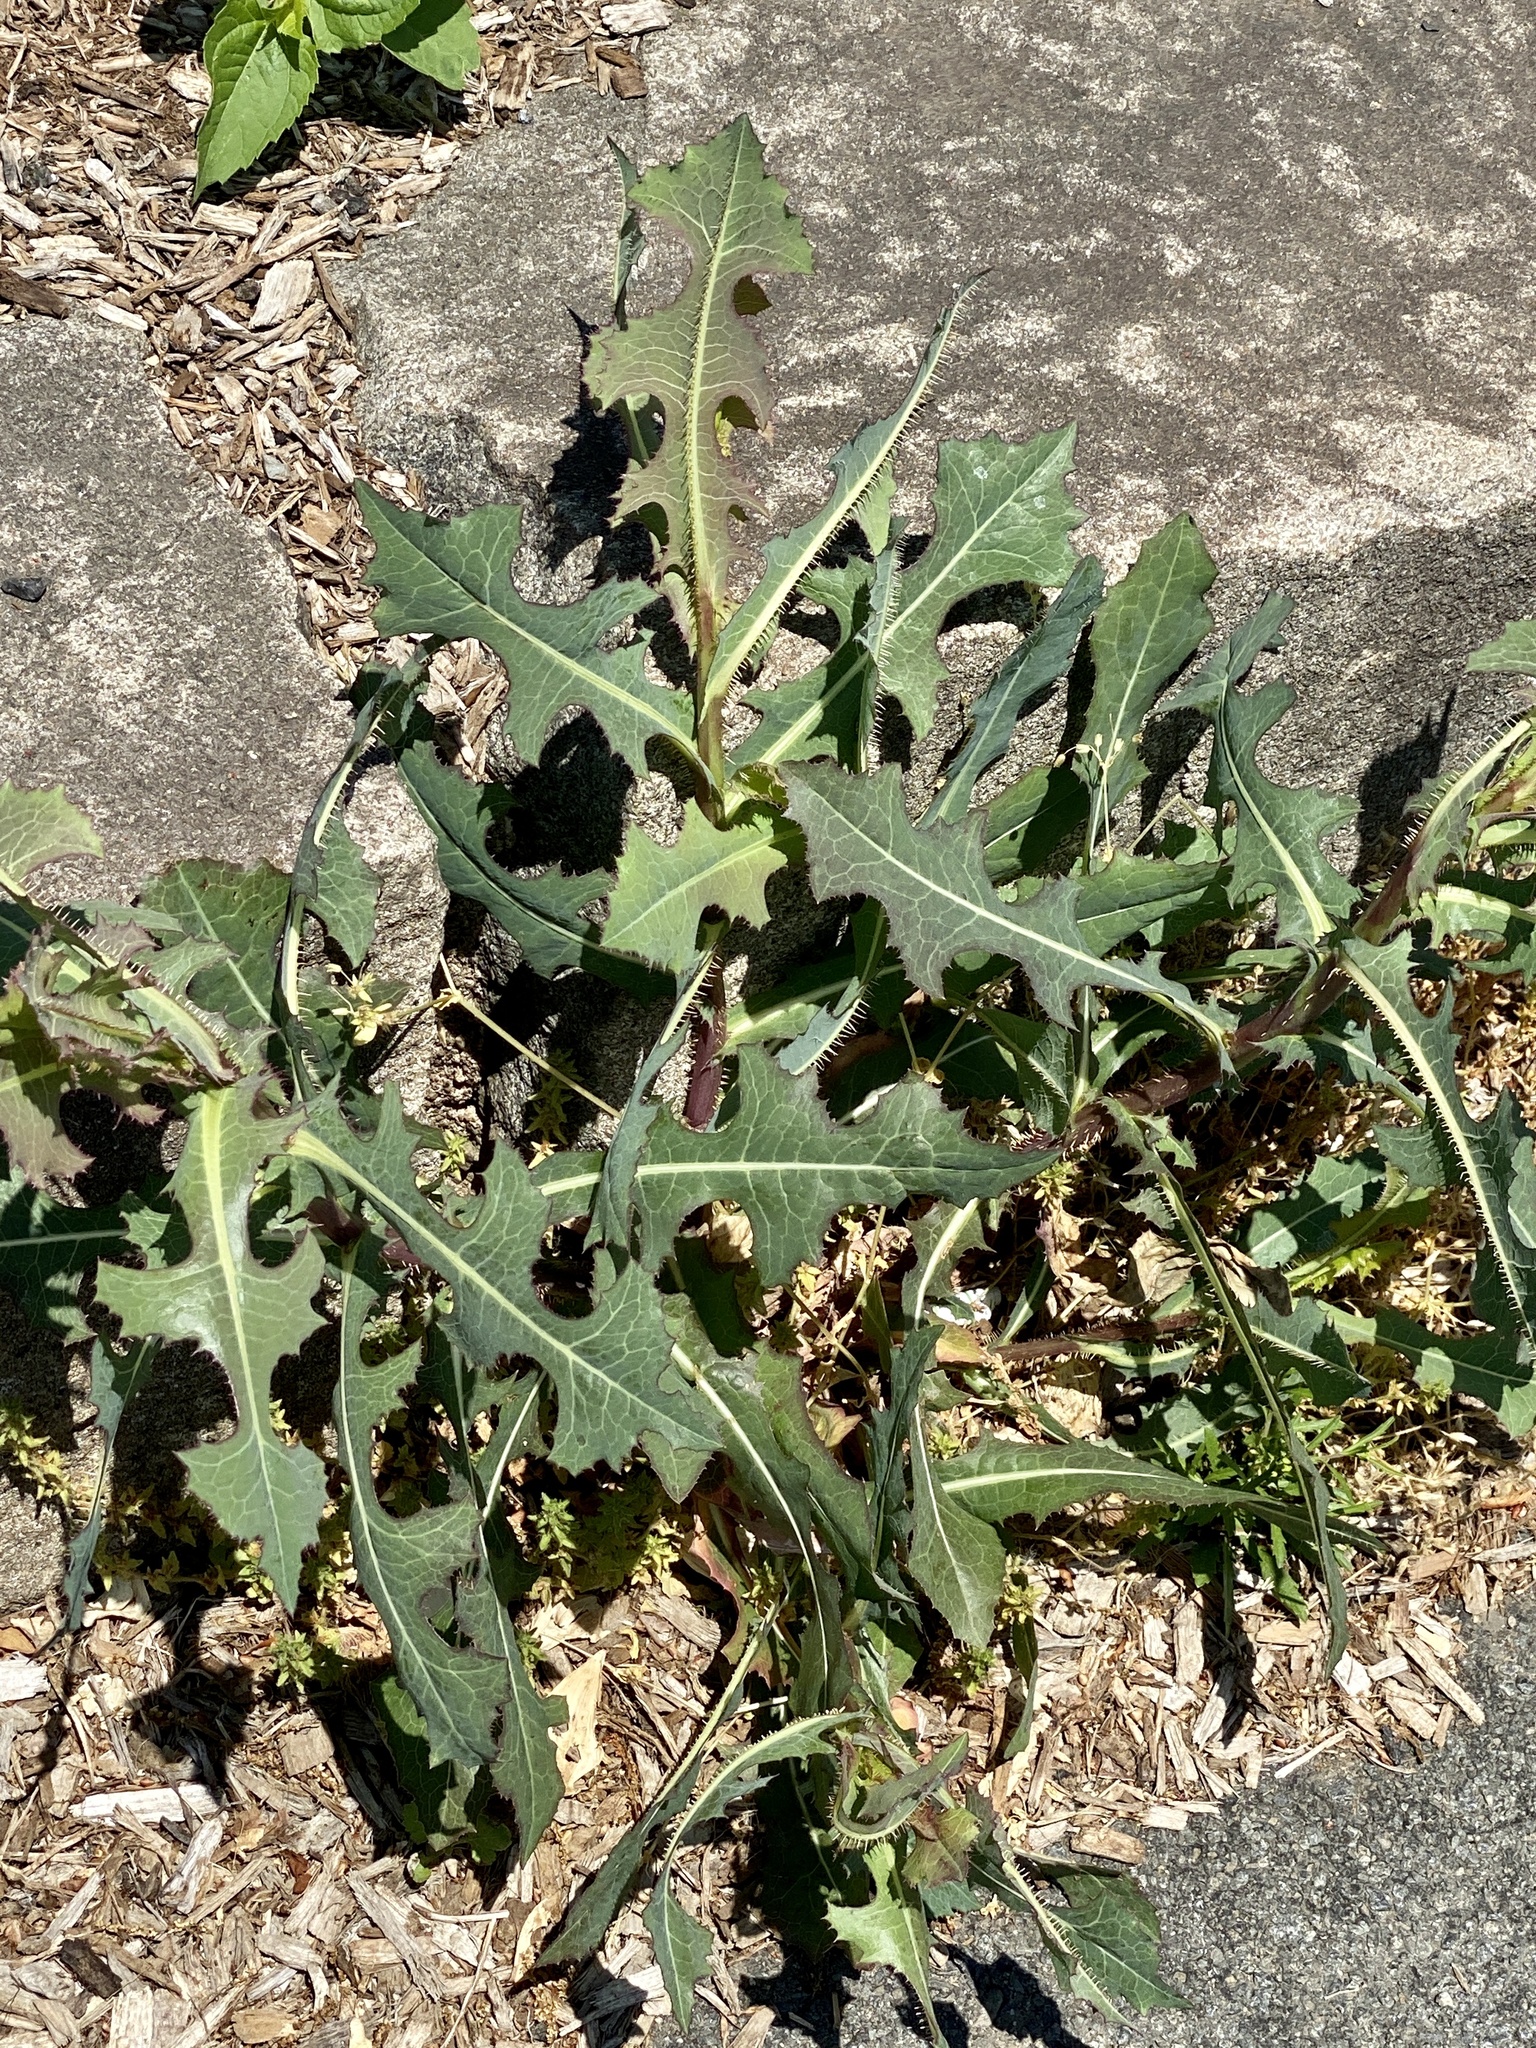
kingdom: Plantae
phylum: Tracheophyta
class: Magnoliopsida
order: Asterales
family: Asteraceae
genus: Lactuca
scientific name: Lactuca serriola
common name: Prickly lettuce
